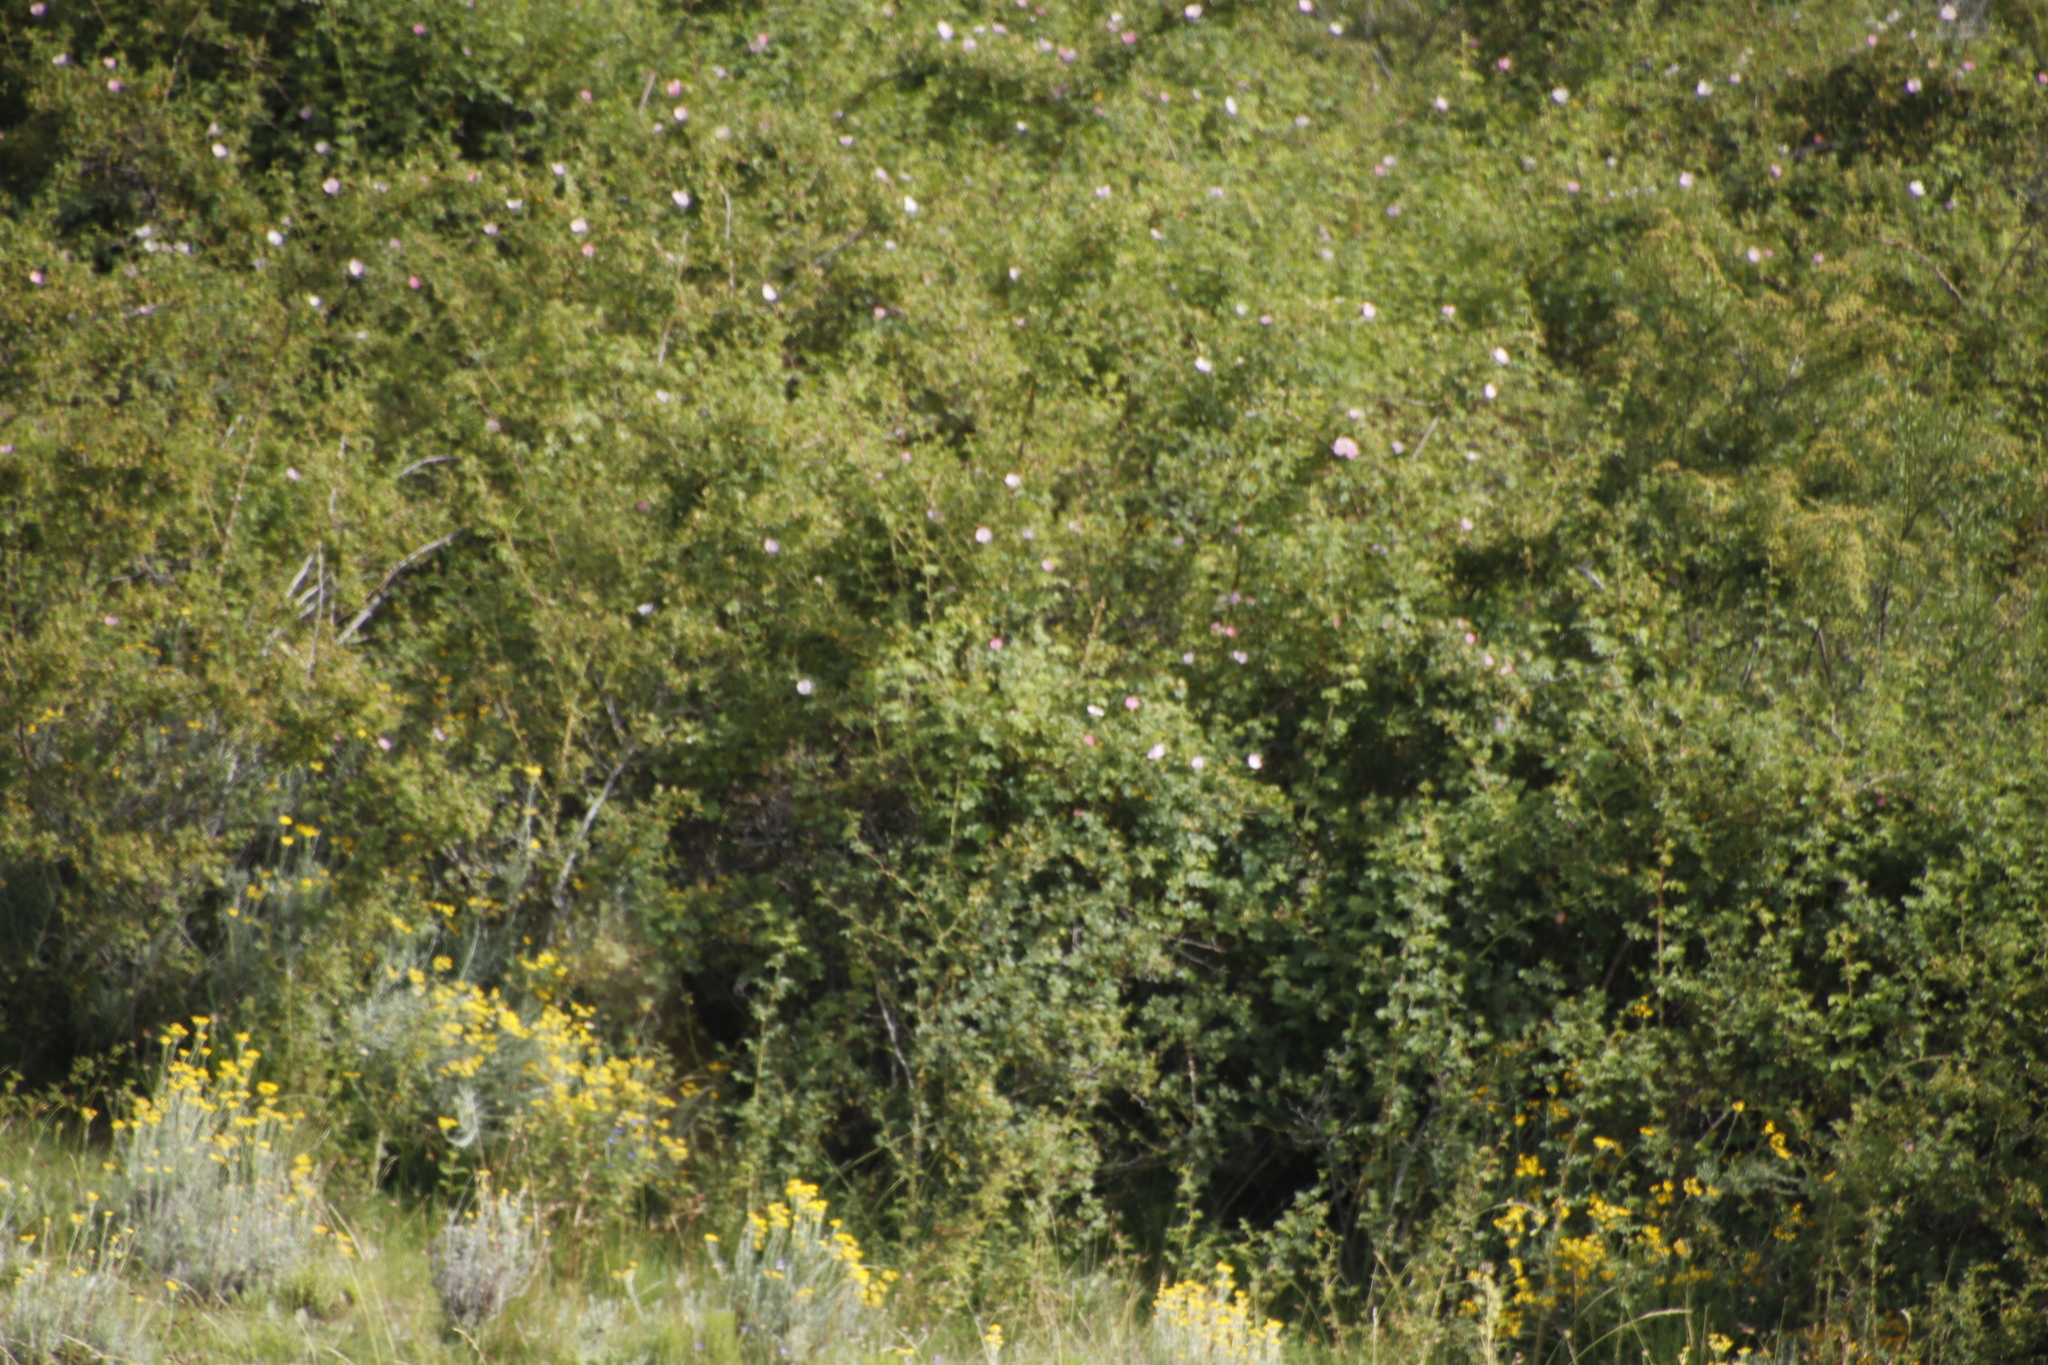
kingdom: Plantae
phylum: Tracheophyta
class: Magnoliopsida
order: Rosales
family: Rosaceae
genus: Leucosidea
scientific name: Leucosidea sericea
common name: Oldwood
